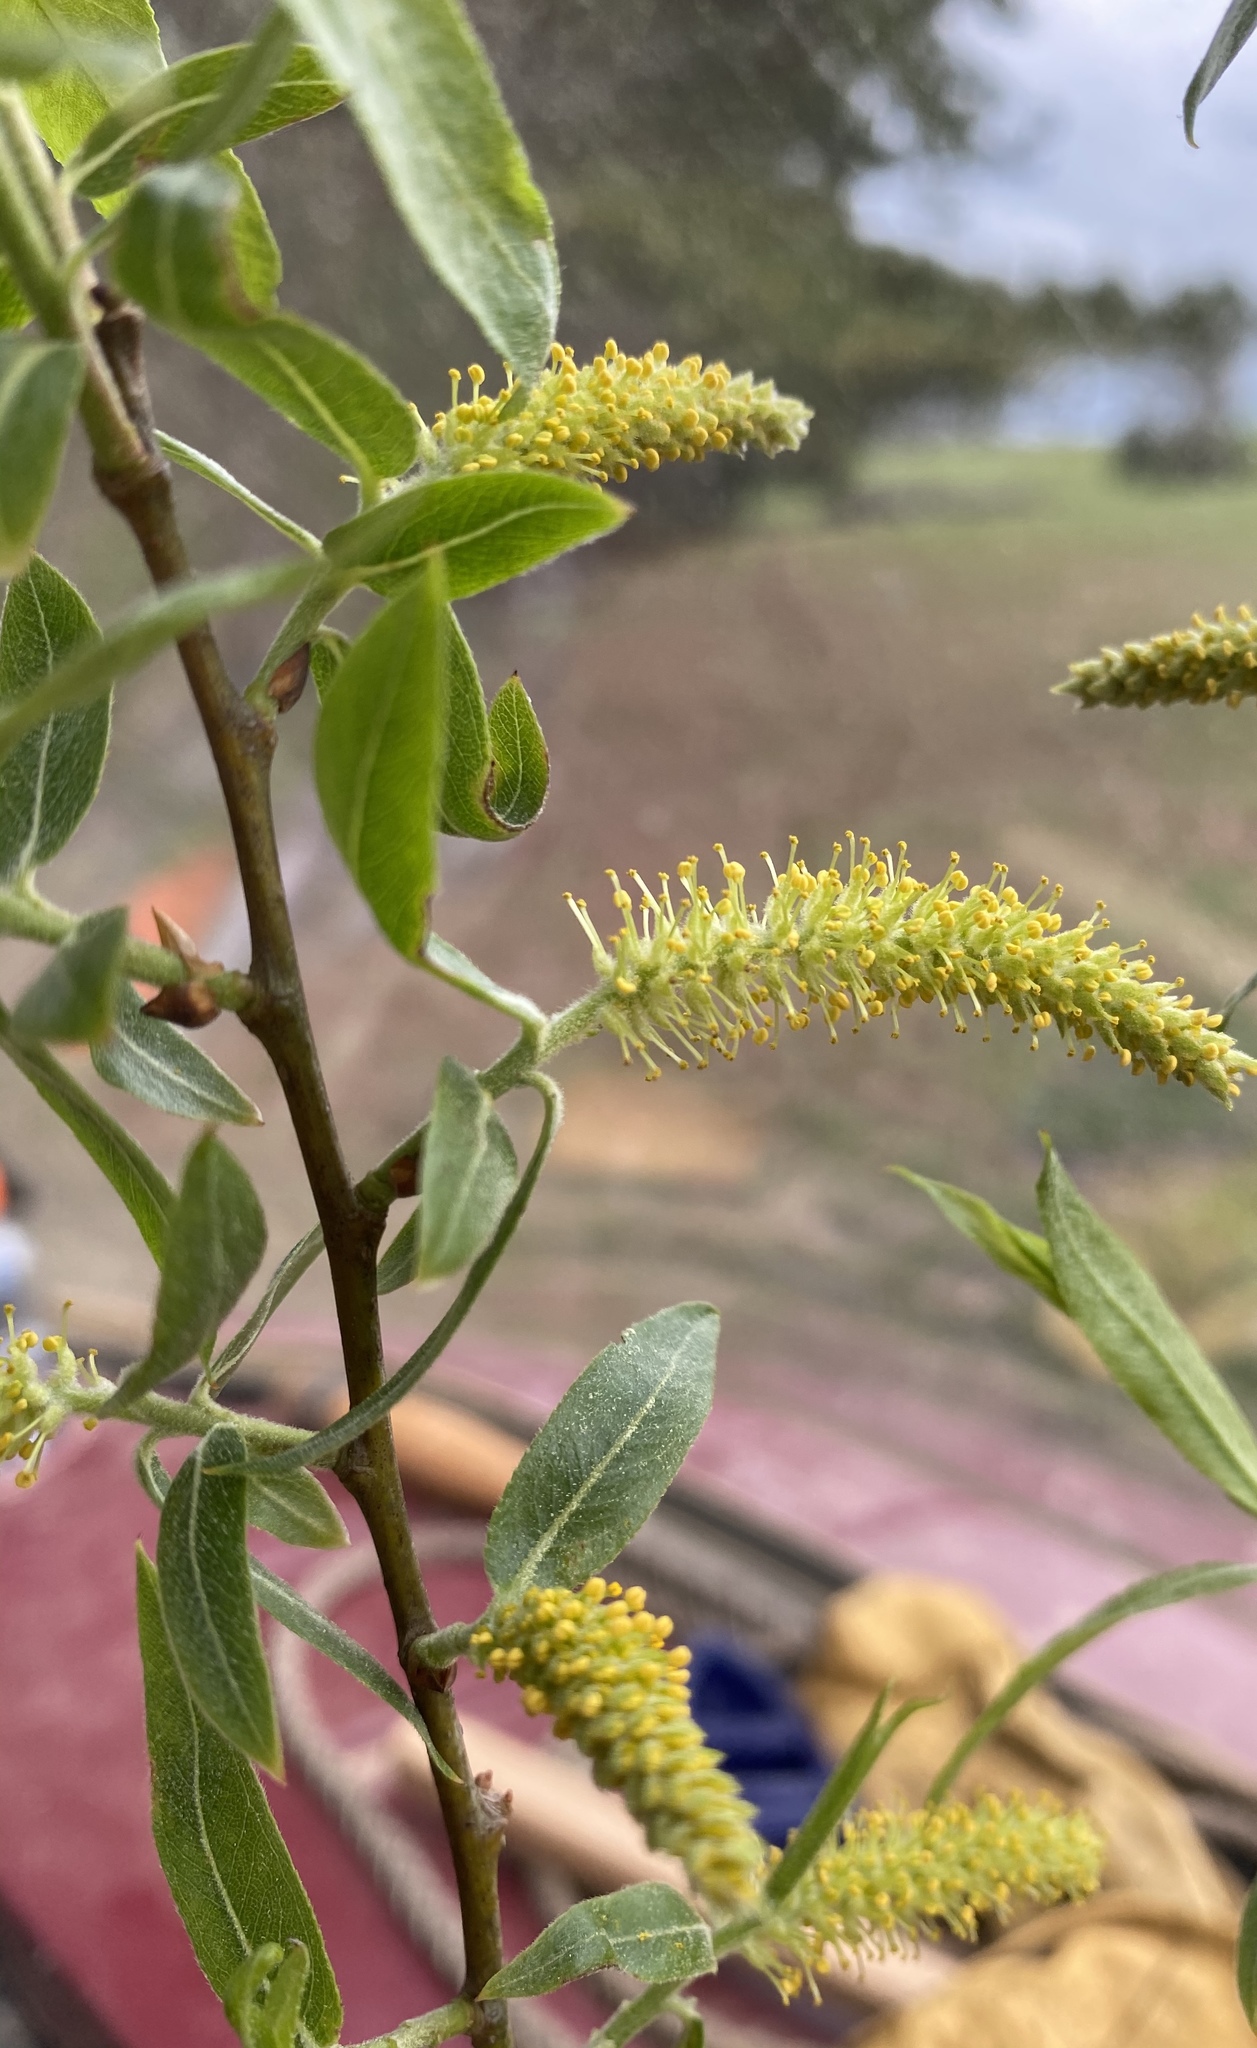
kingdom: Plantae
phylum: Tracheophyta
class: Magnoliopsida
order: Malpighiales
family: Salicaceae
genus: Salix
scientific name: Salix nigra
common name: Black willow
